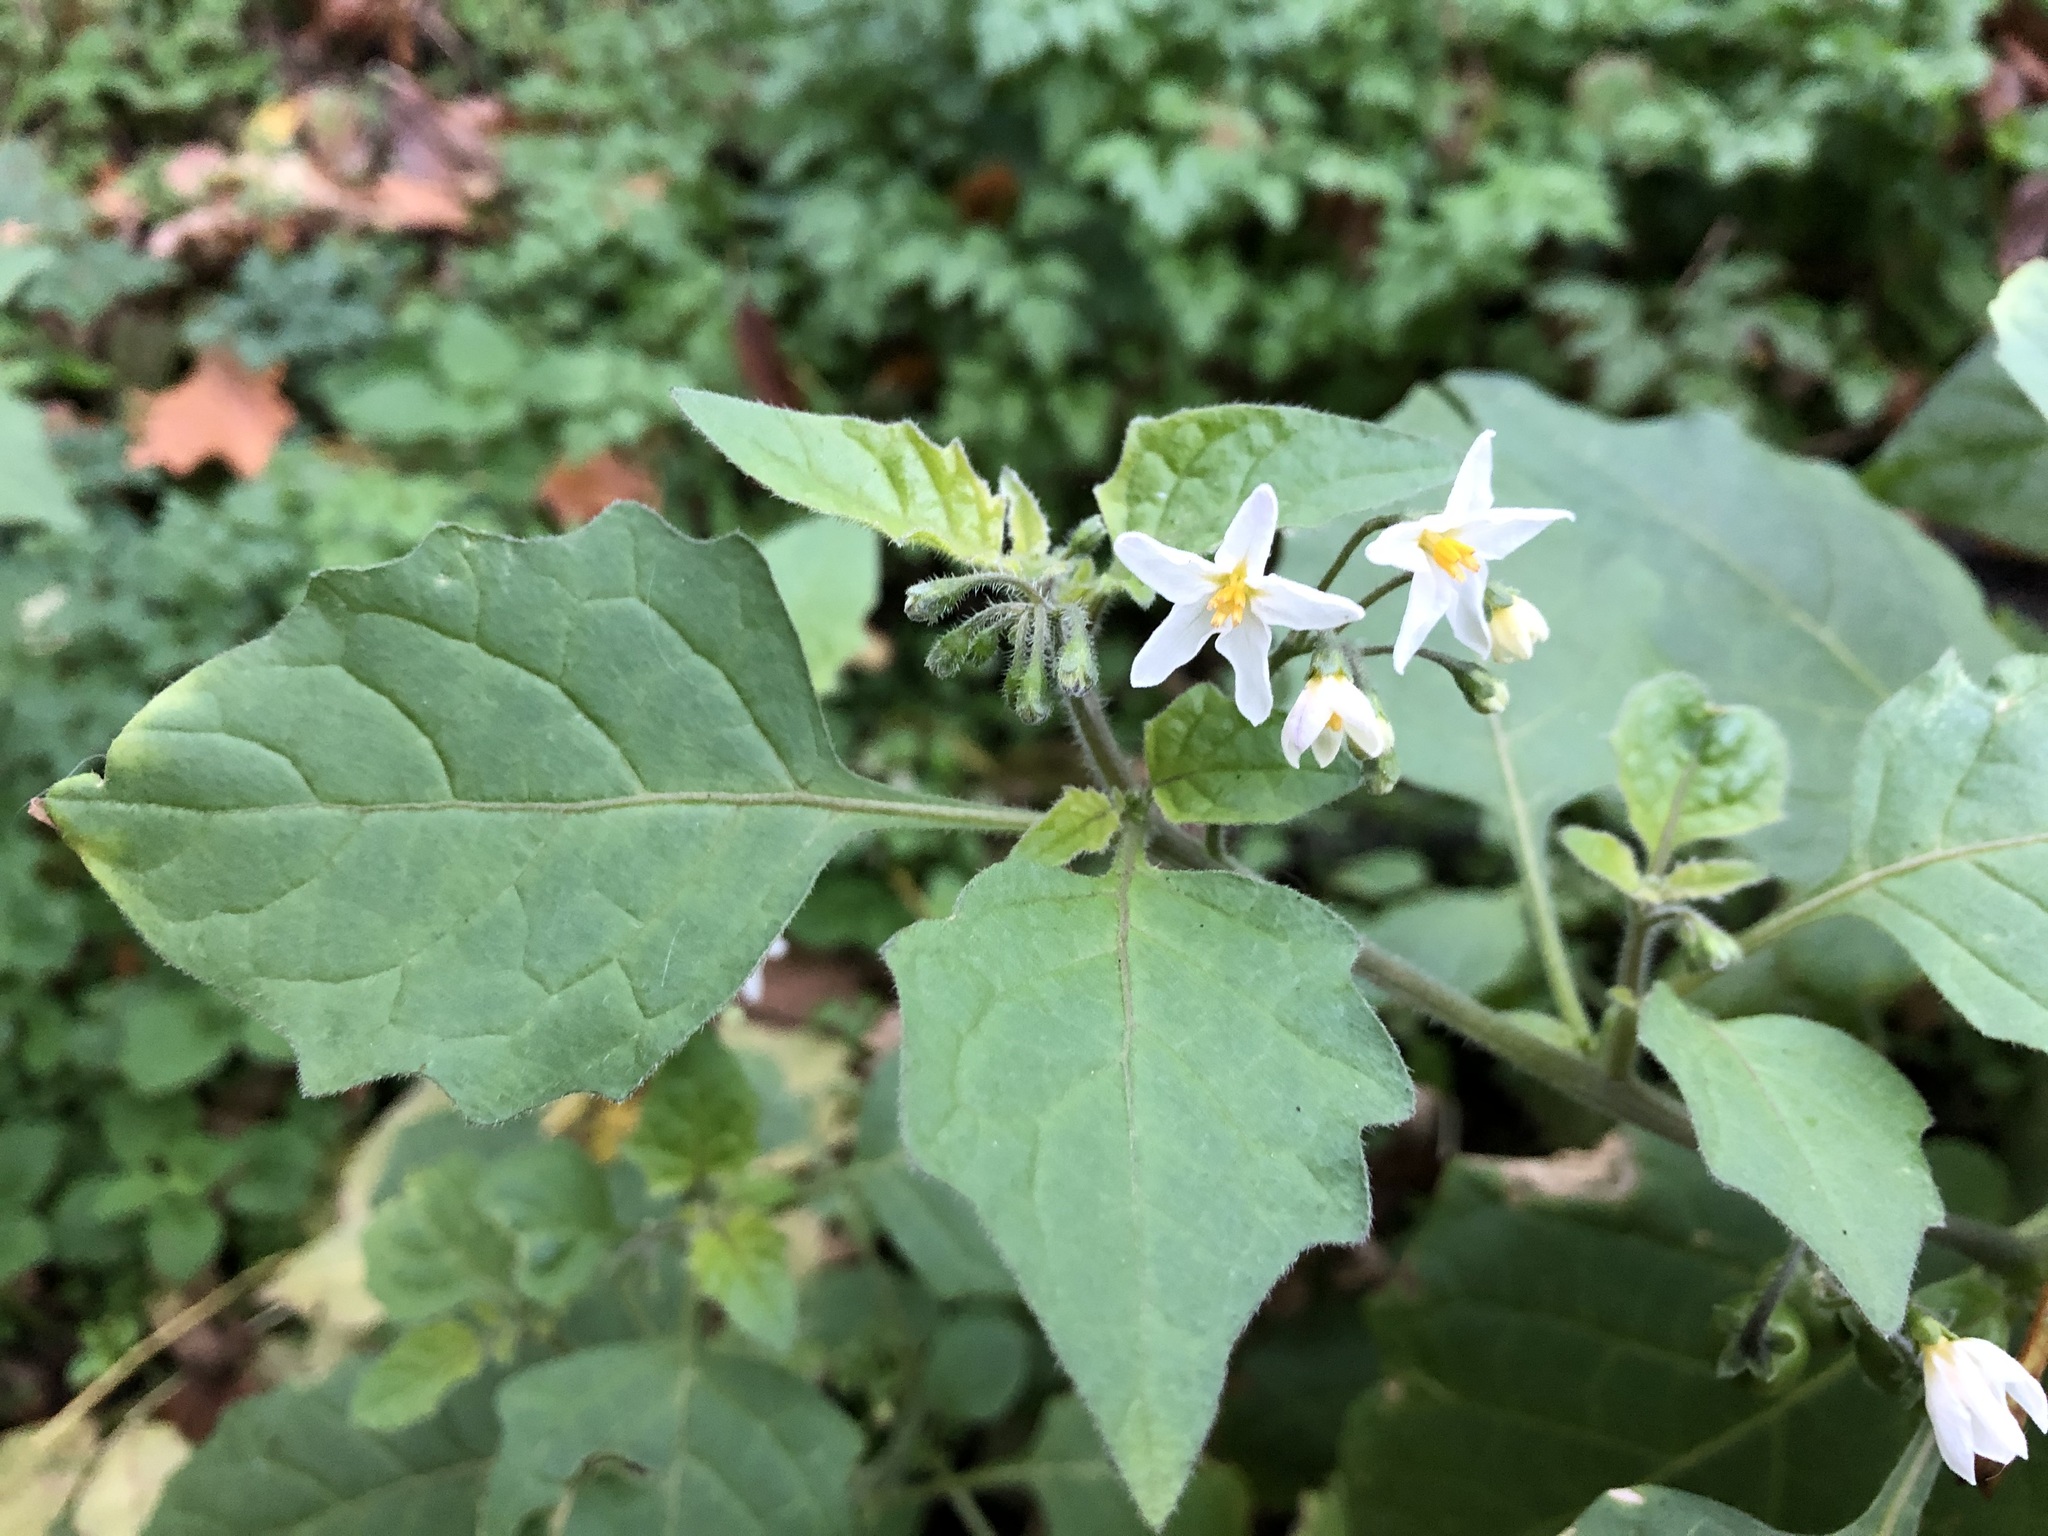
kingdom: Plantae
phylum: Tracheophyta
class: Magnoliopsida
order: Solanales
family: Solanaceae
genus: Solanum
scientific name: Solanum nigrum
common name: Black nightshade
